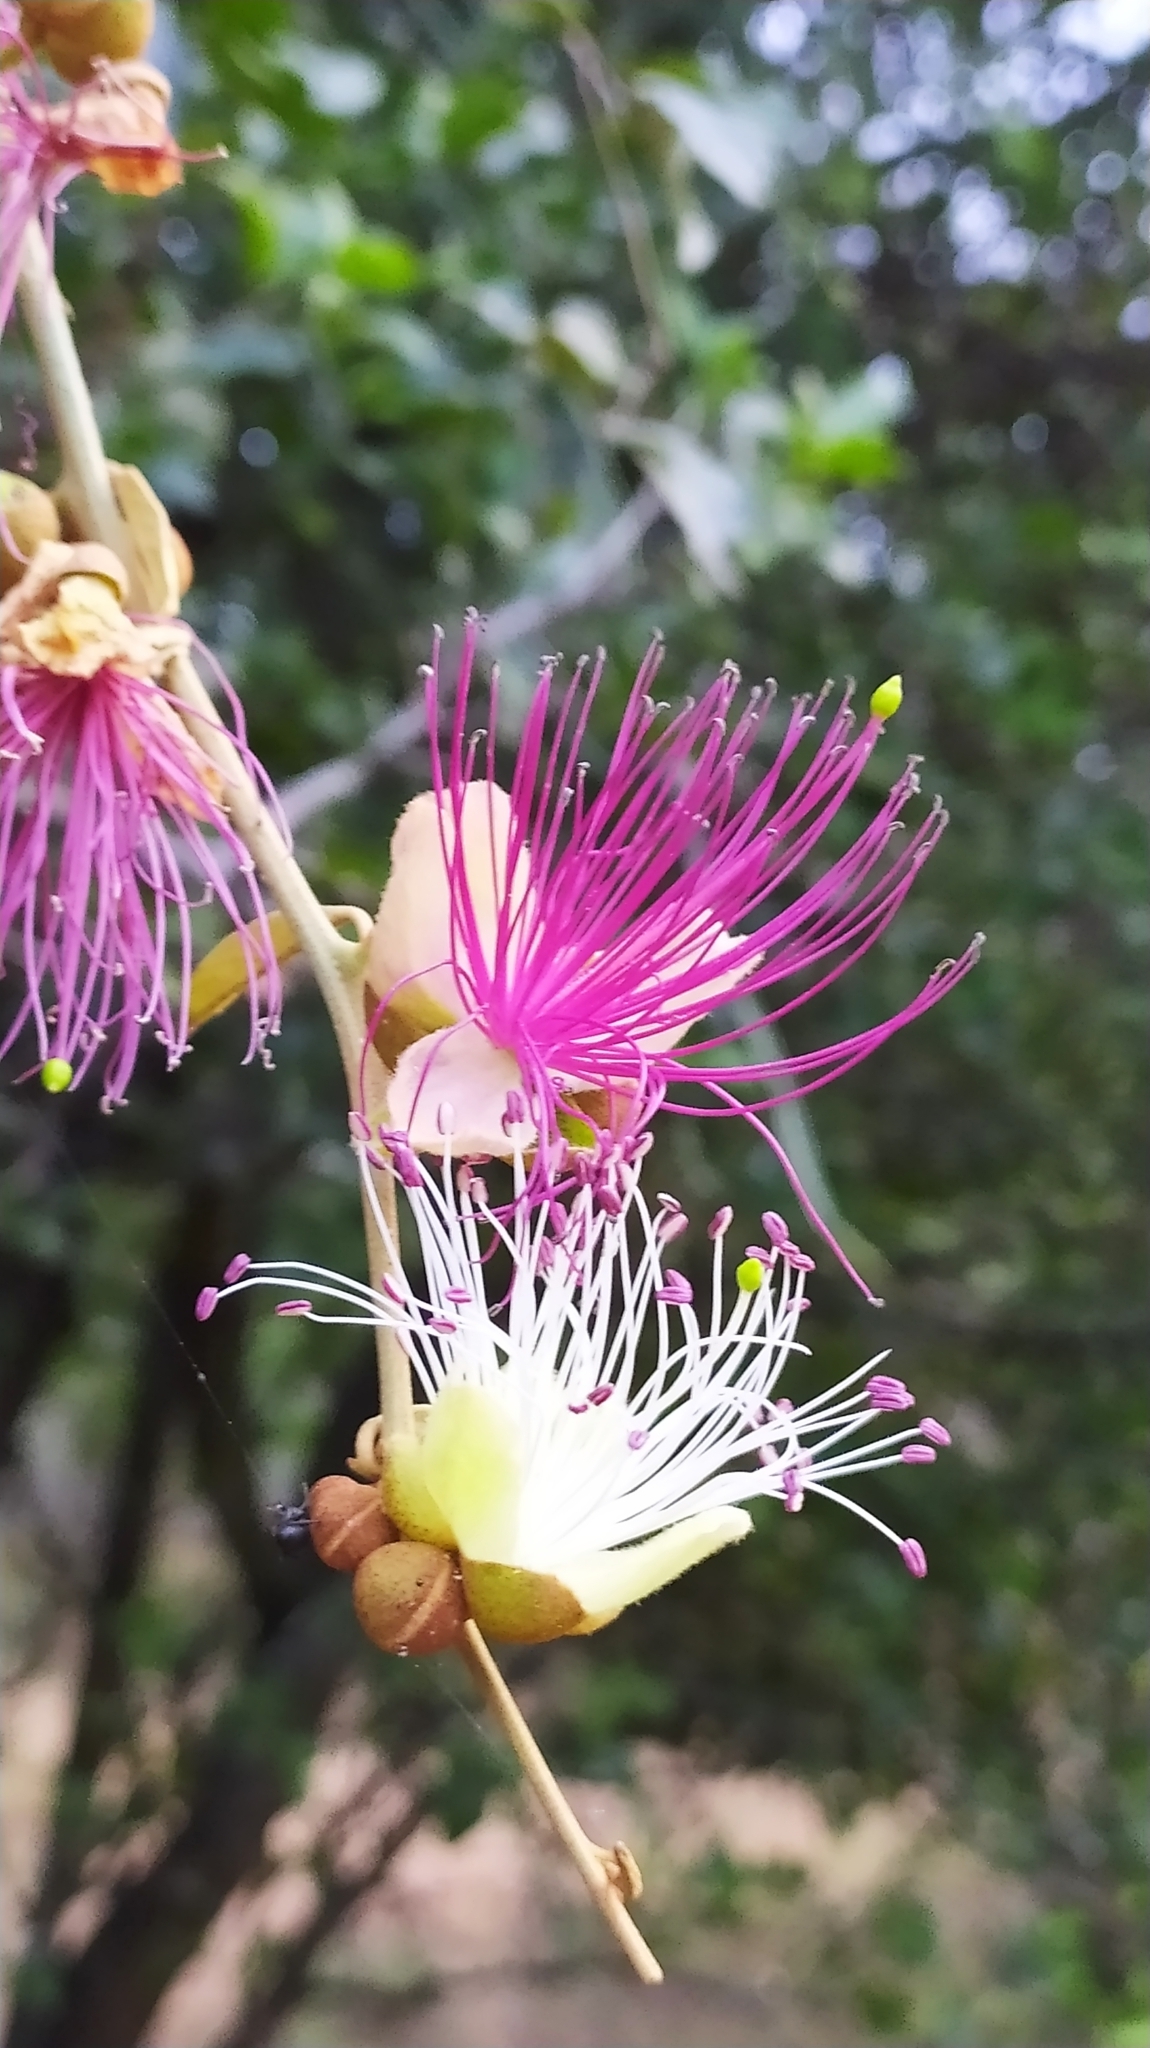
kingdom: Plantae
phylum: Tracheophyta
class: Magnoliopsida
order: Brassicales
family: Capparaceae
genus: Capparis
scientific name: Capparis zeylanica
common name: Ceylon caper
